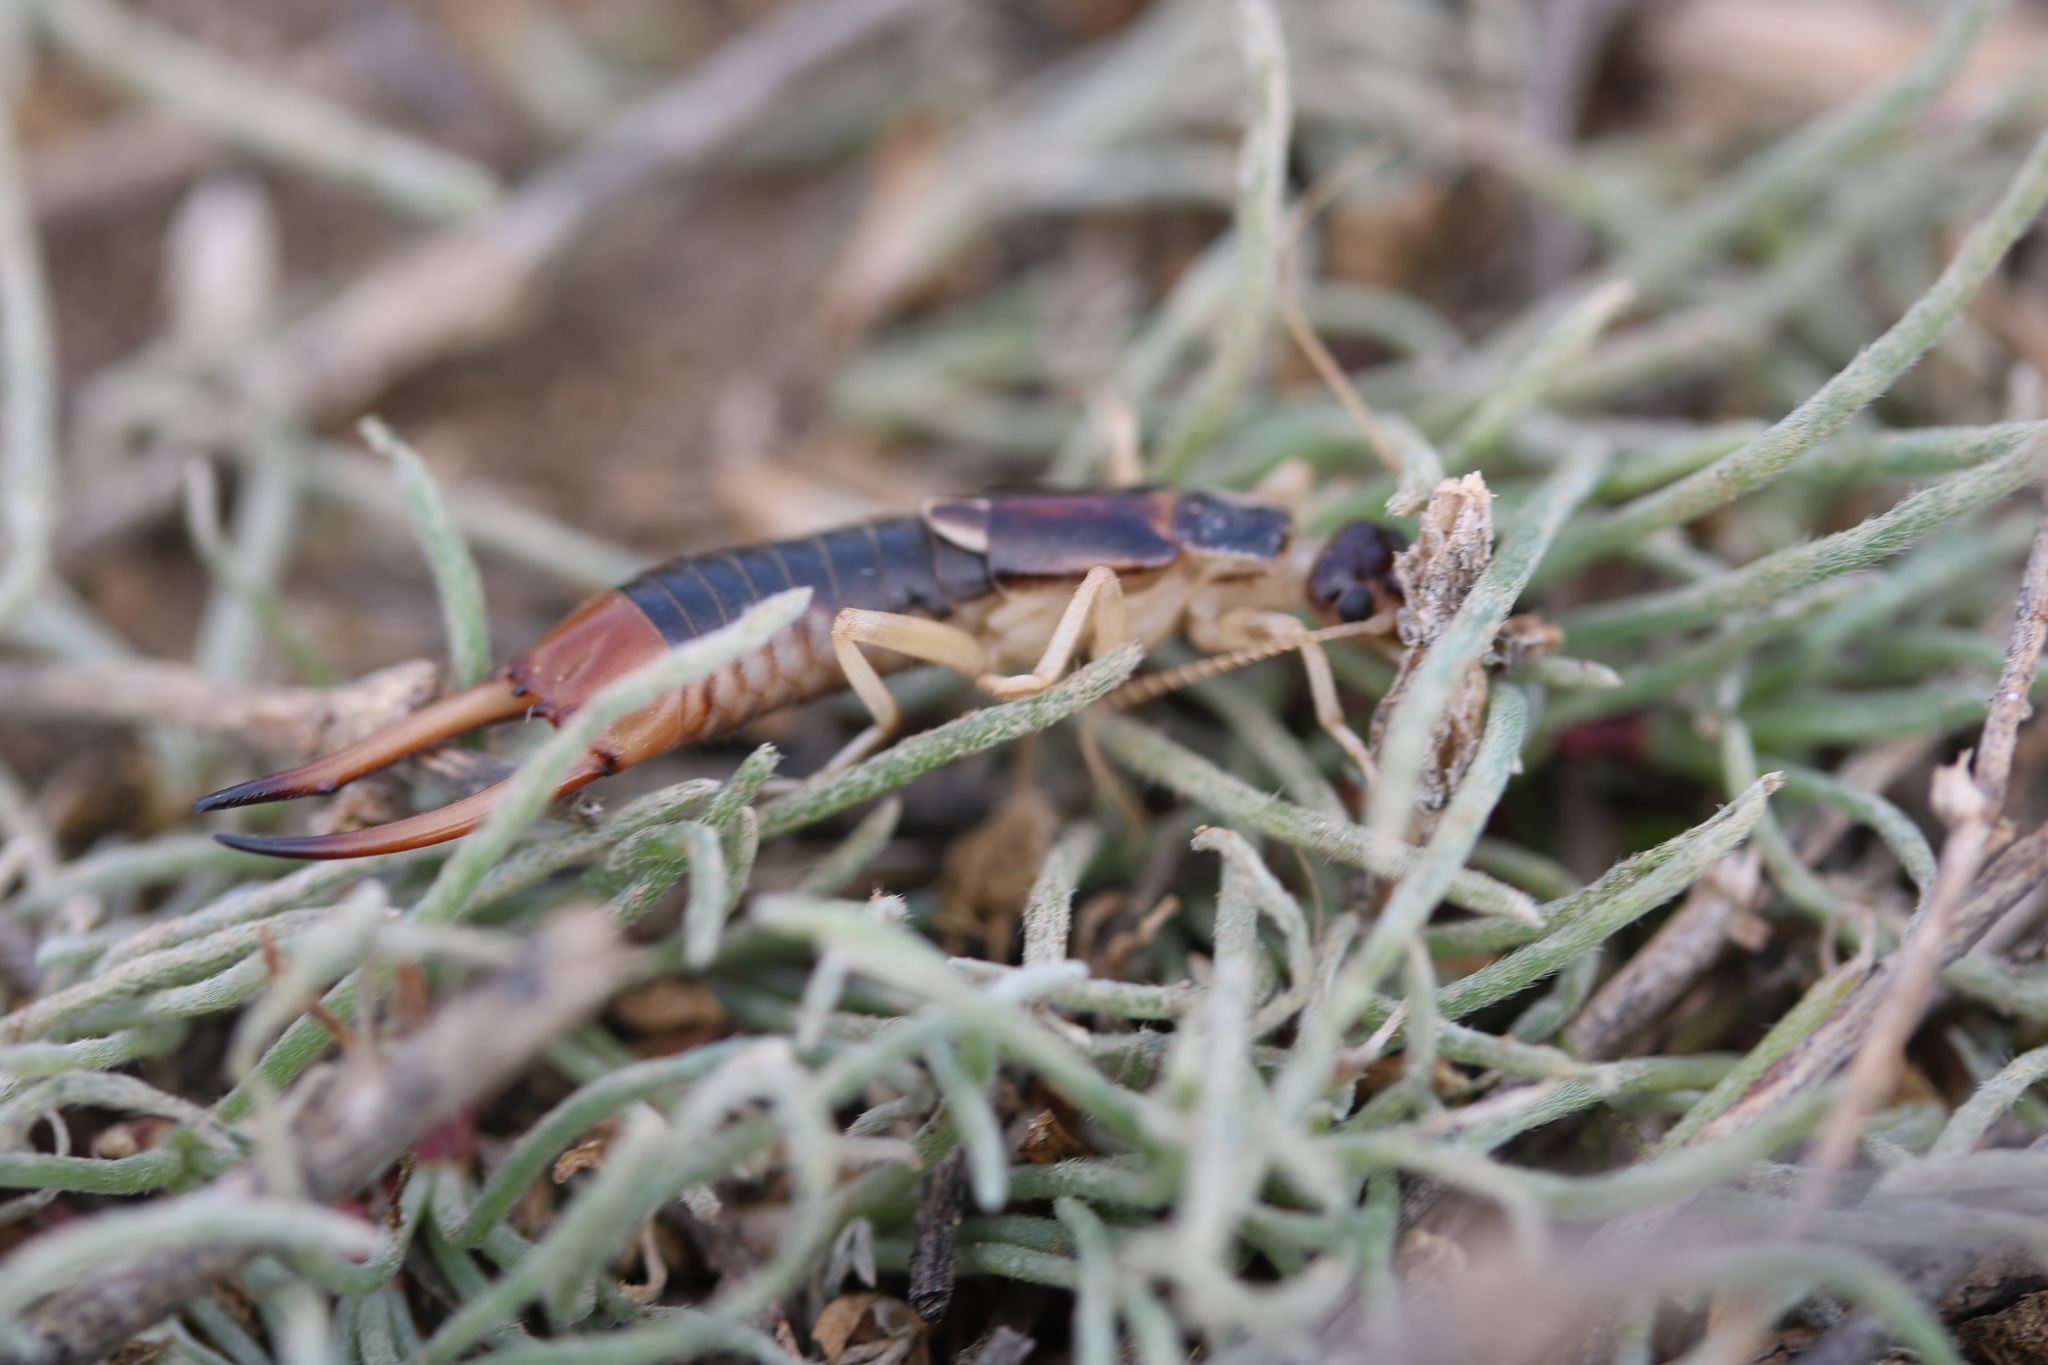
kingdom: Animalia
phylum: Arthropoda
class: Insecta
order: Dermaptera
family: Labiduridae
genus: Labidura
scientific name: Labidura riparia
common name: Striped earwig
